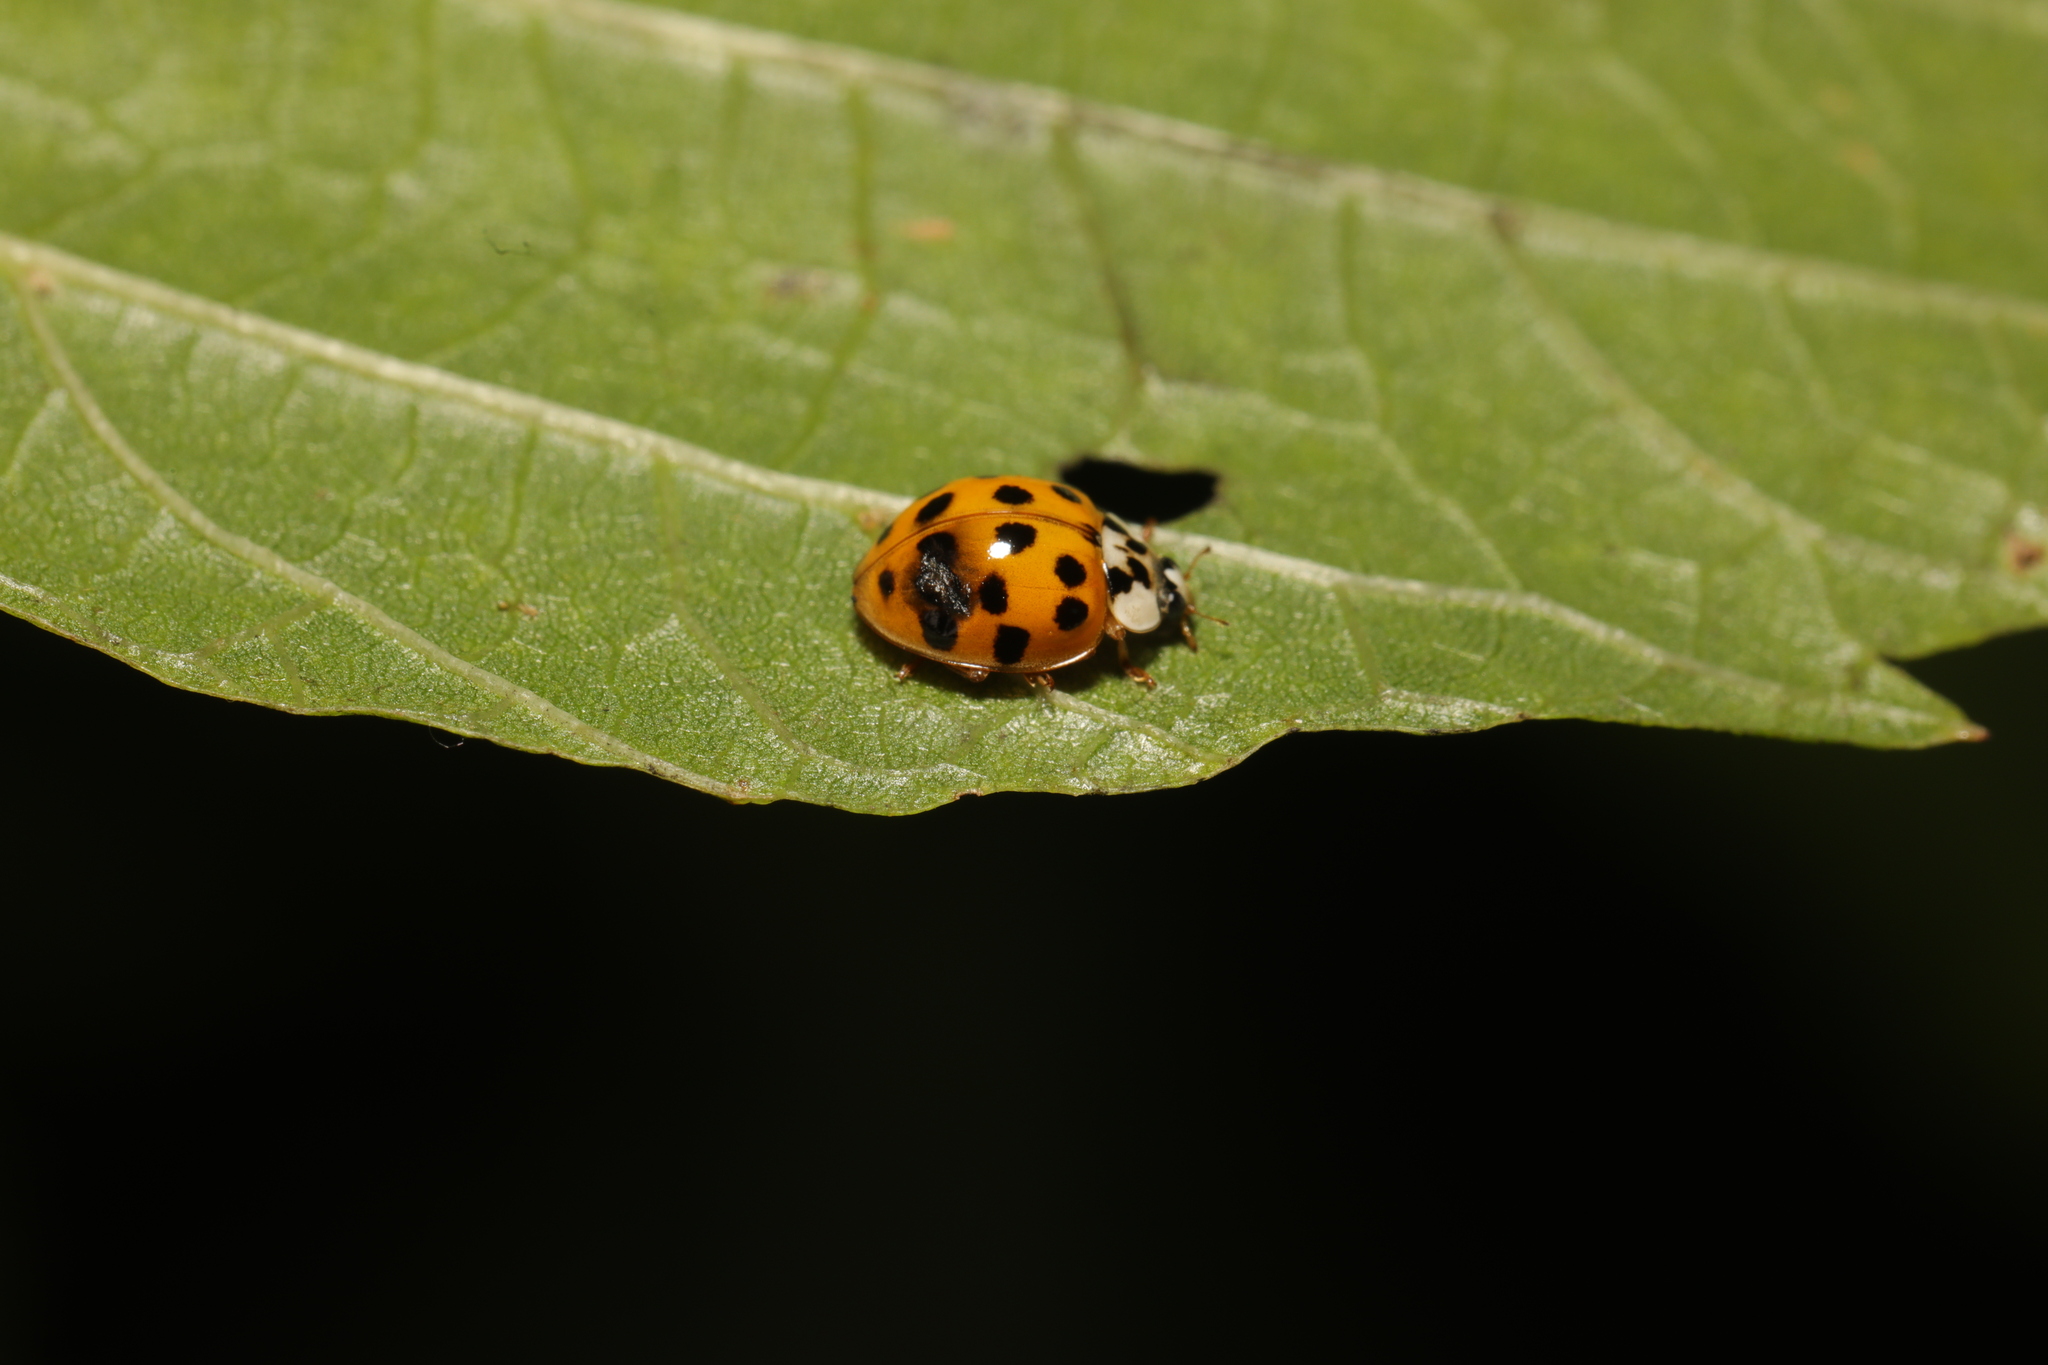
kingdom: Animalia
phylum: Arthropoda
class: Insecta
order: Coleoptera
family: Coccinellidae
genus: Harmonia
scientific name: Harmonia axyridis
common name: Harlequin ladybird
